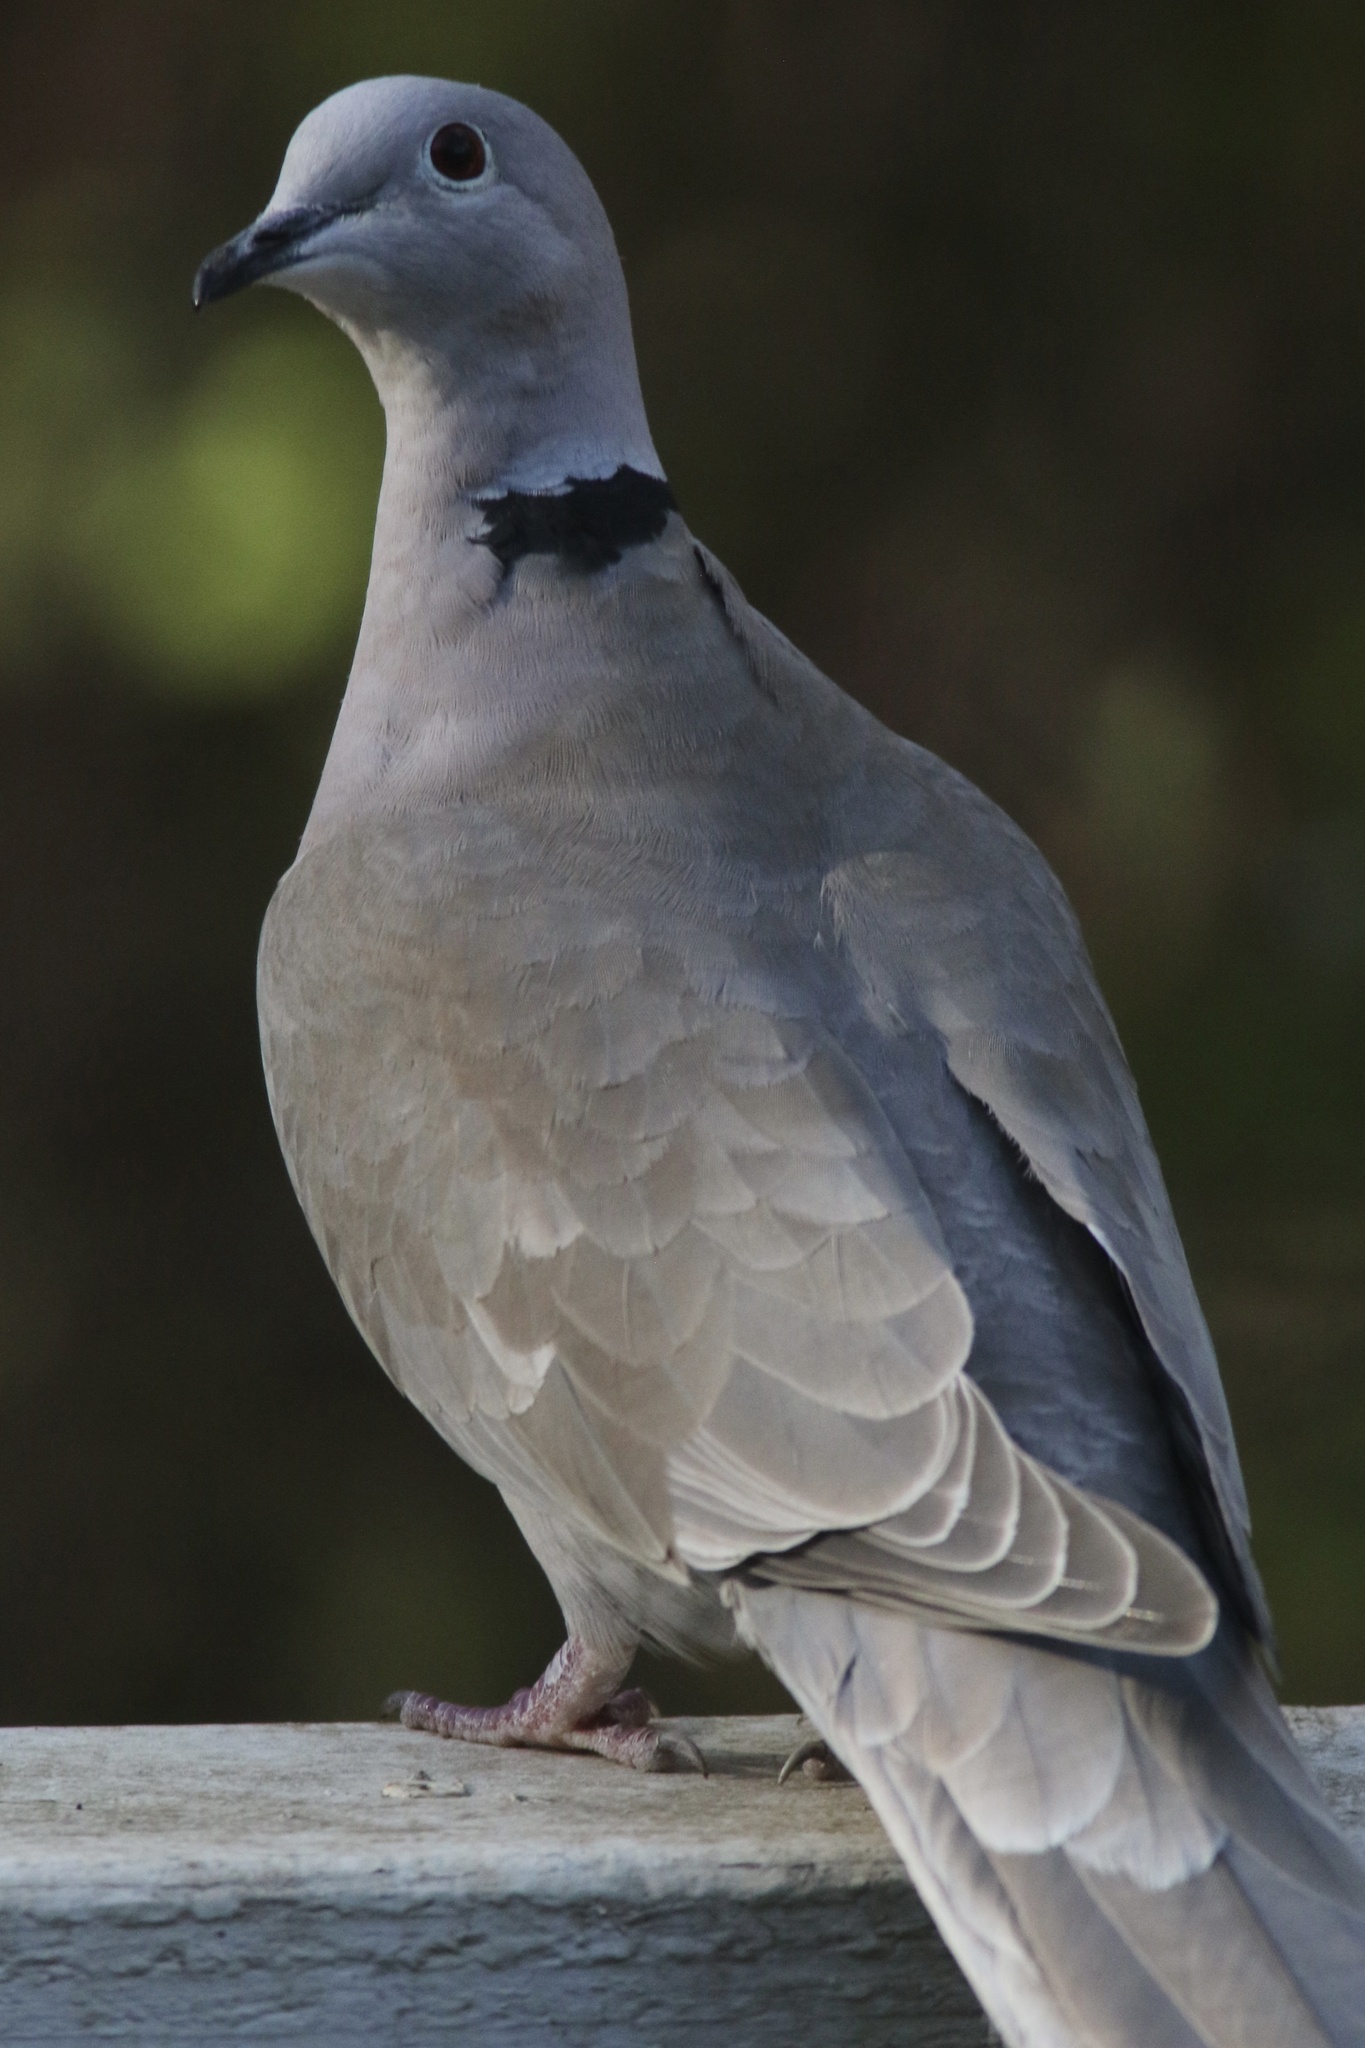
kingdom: Animalia
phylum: Chordata
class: Aves
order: Columbiformes
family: Columbidae
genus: Streptopelia
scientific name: Streptopelia decaocto
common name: Eurasian collared dove
